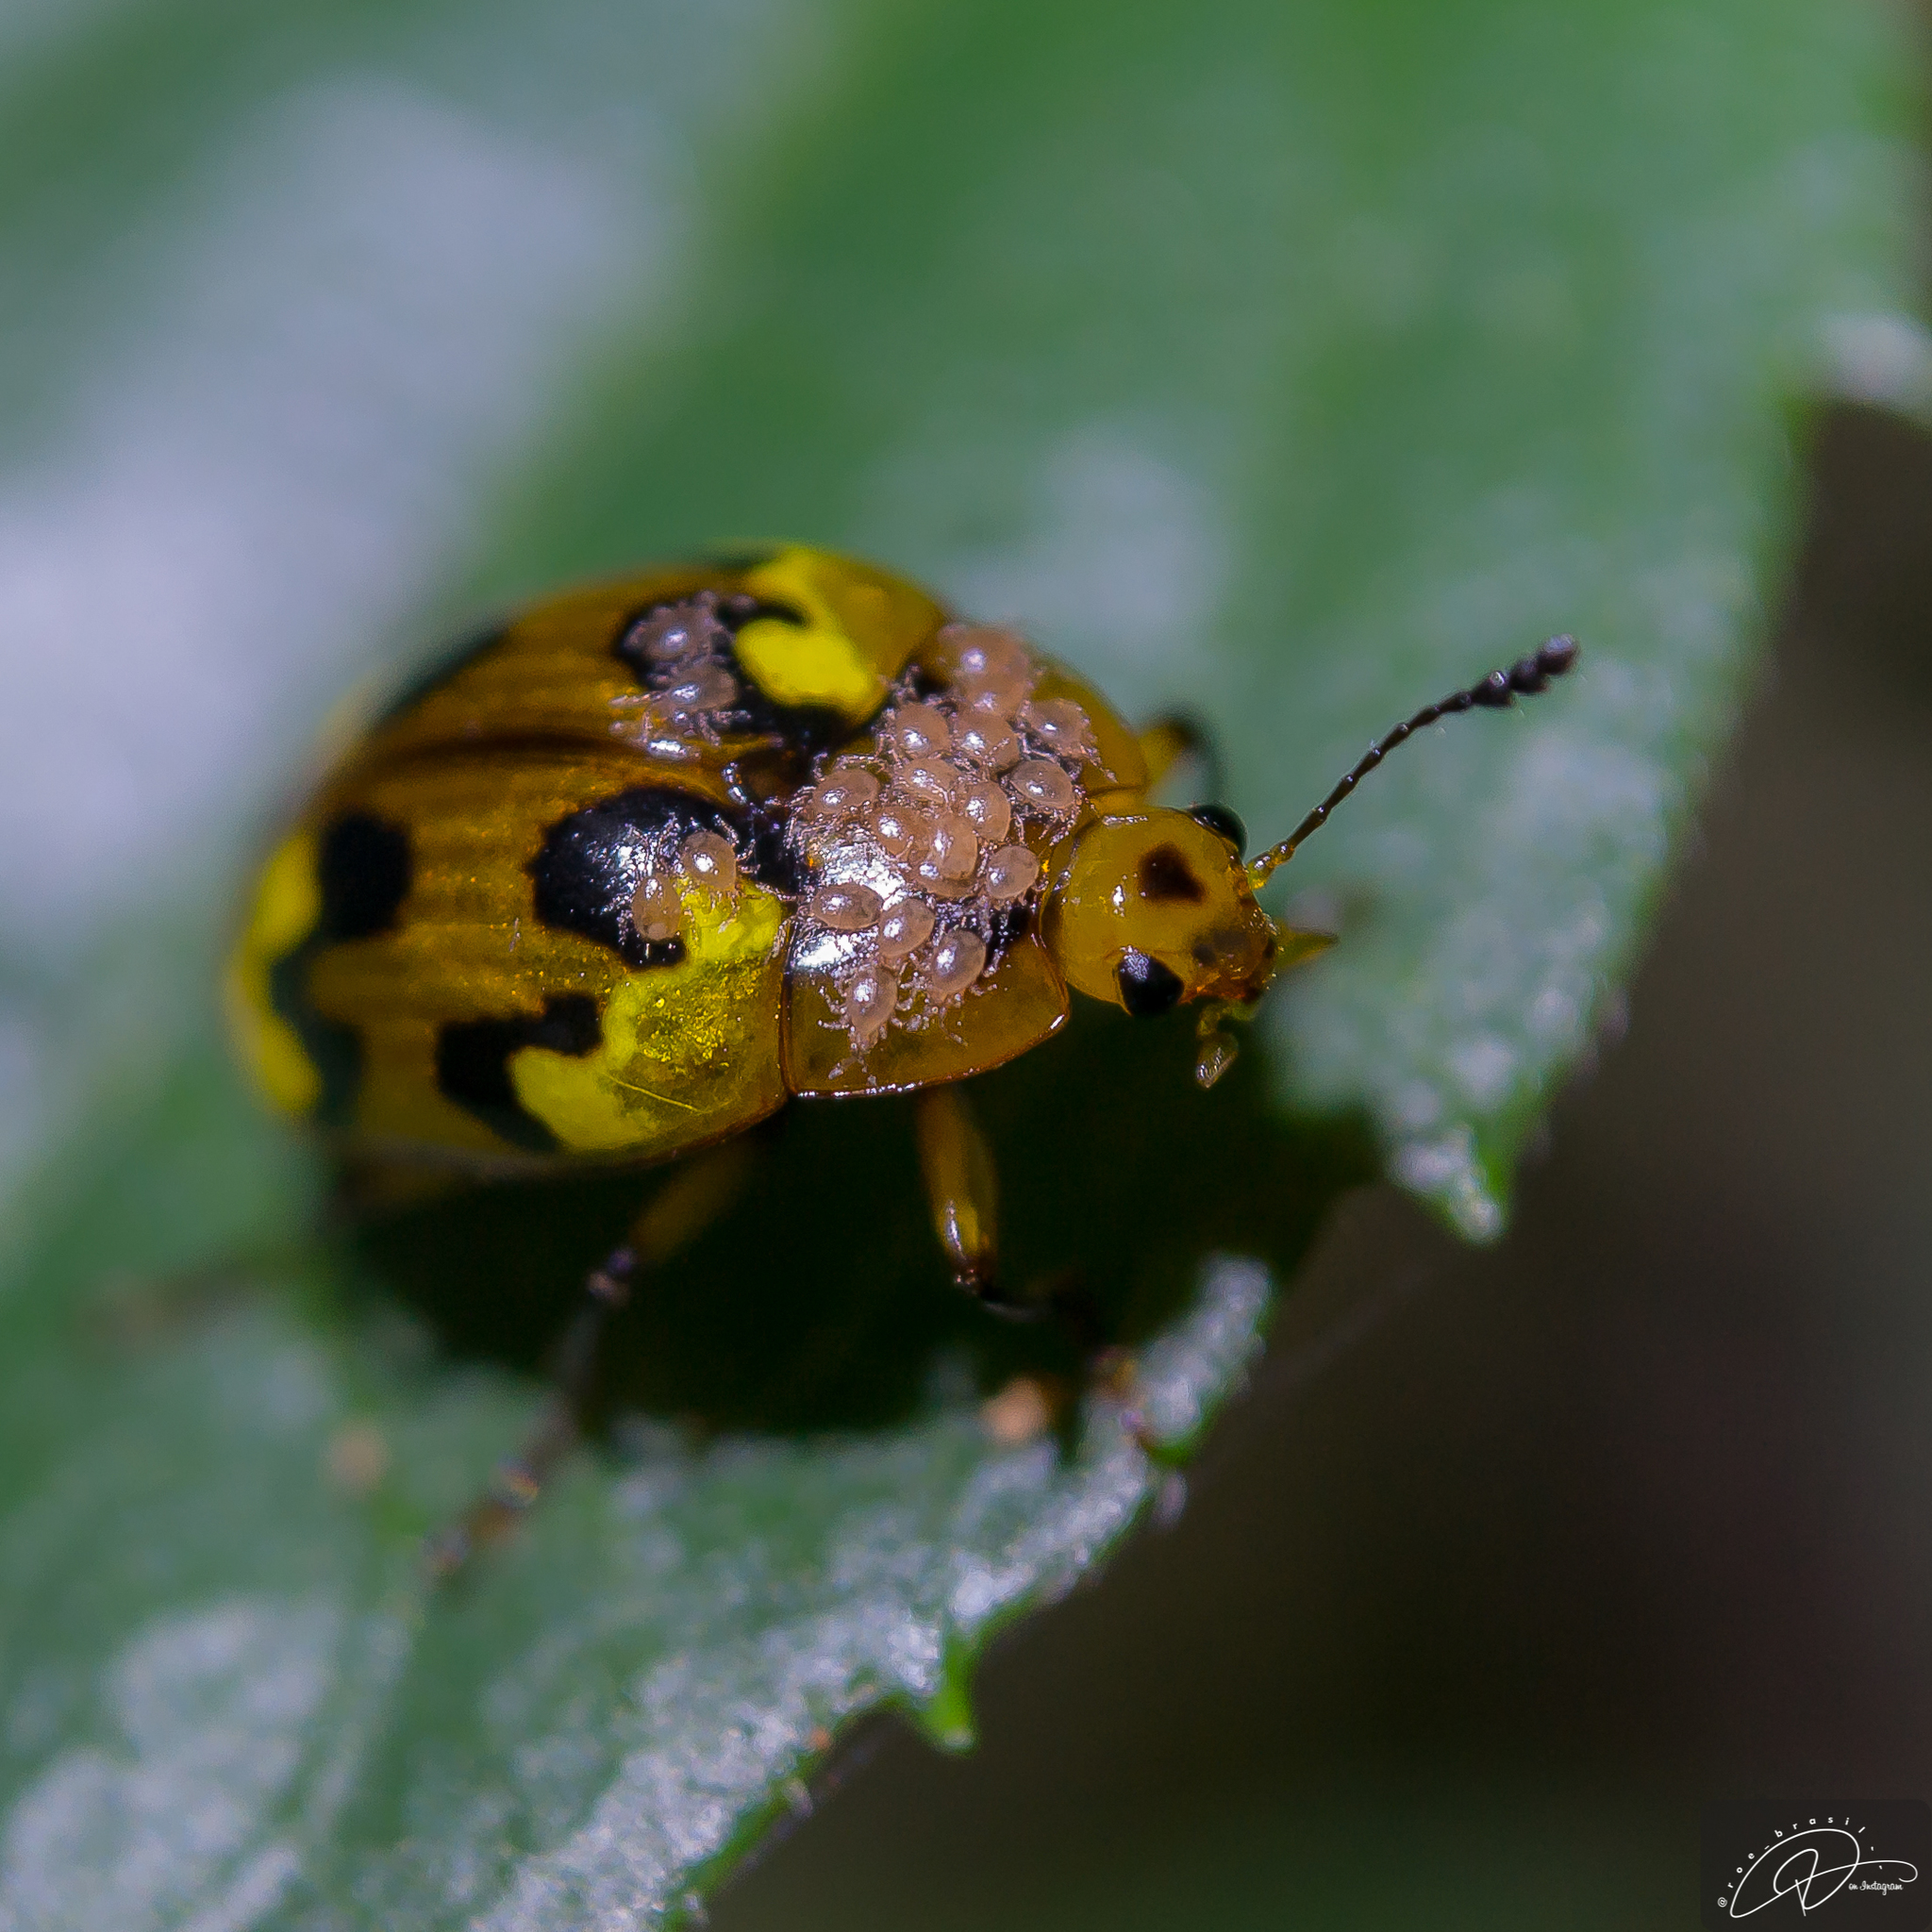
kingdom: Animalia
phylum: Arthropoda
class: Insecta
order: Coleoptera
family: Erotylidae
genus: Iphiclus
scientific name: Iphiclus
